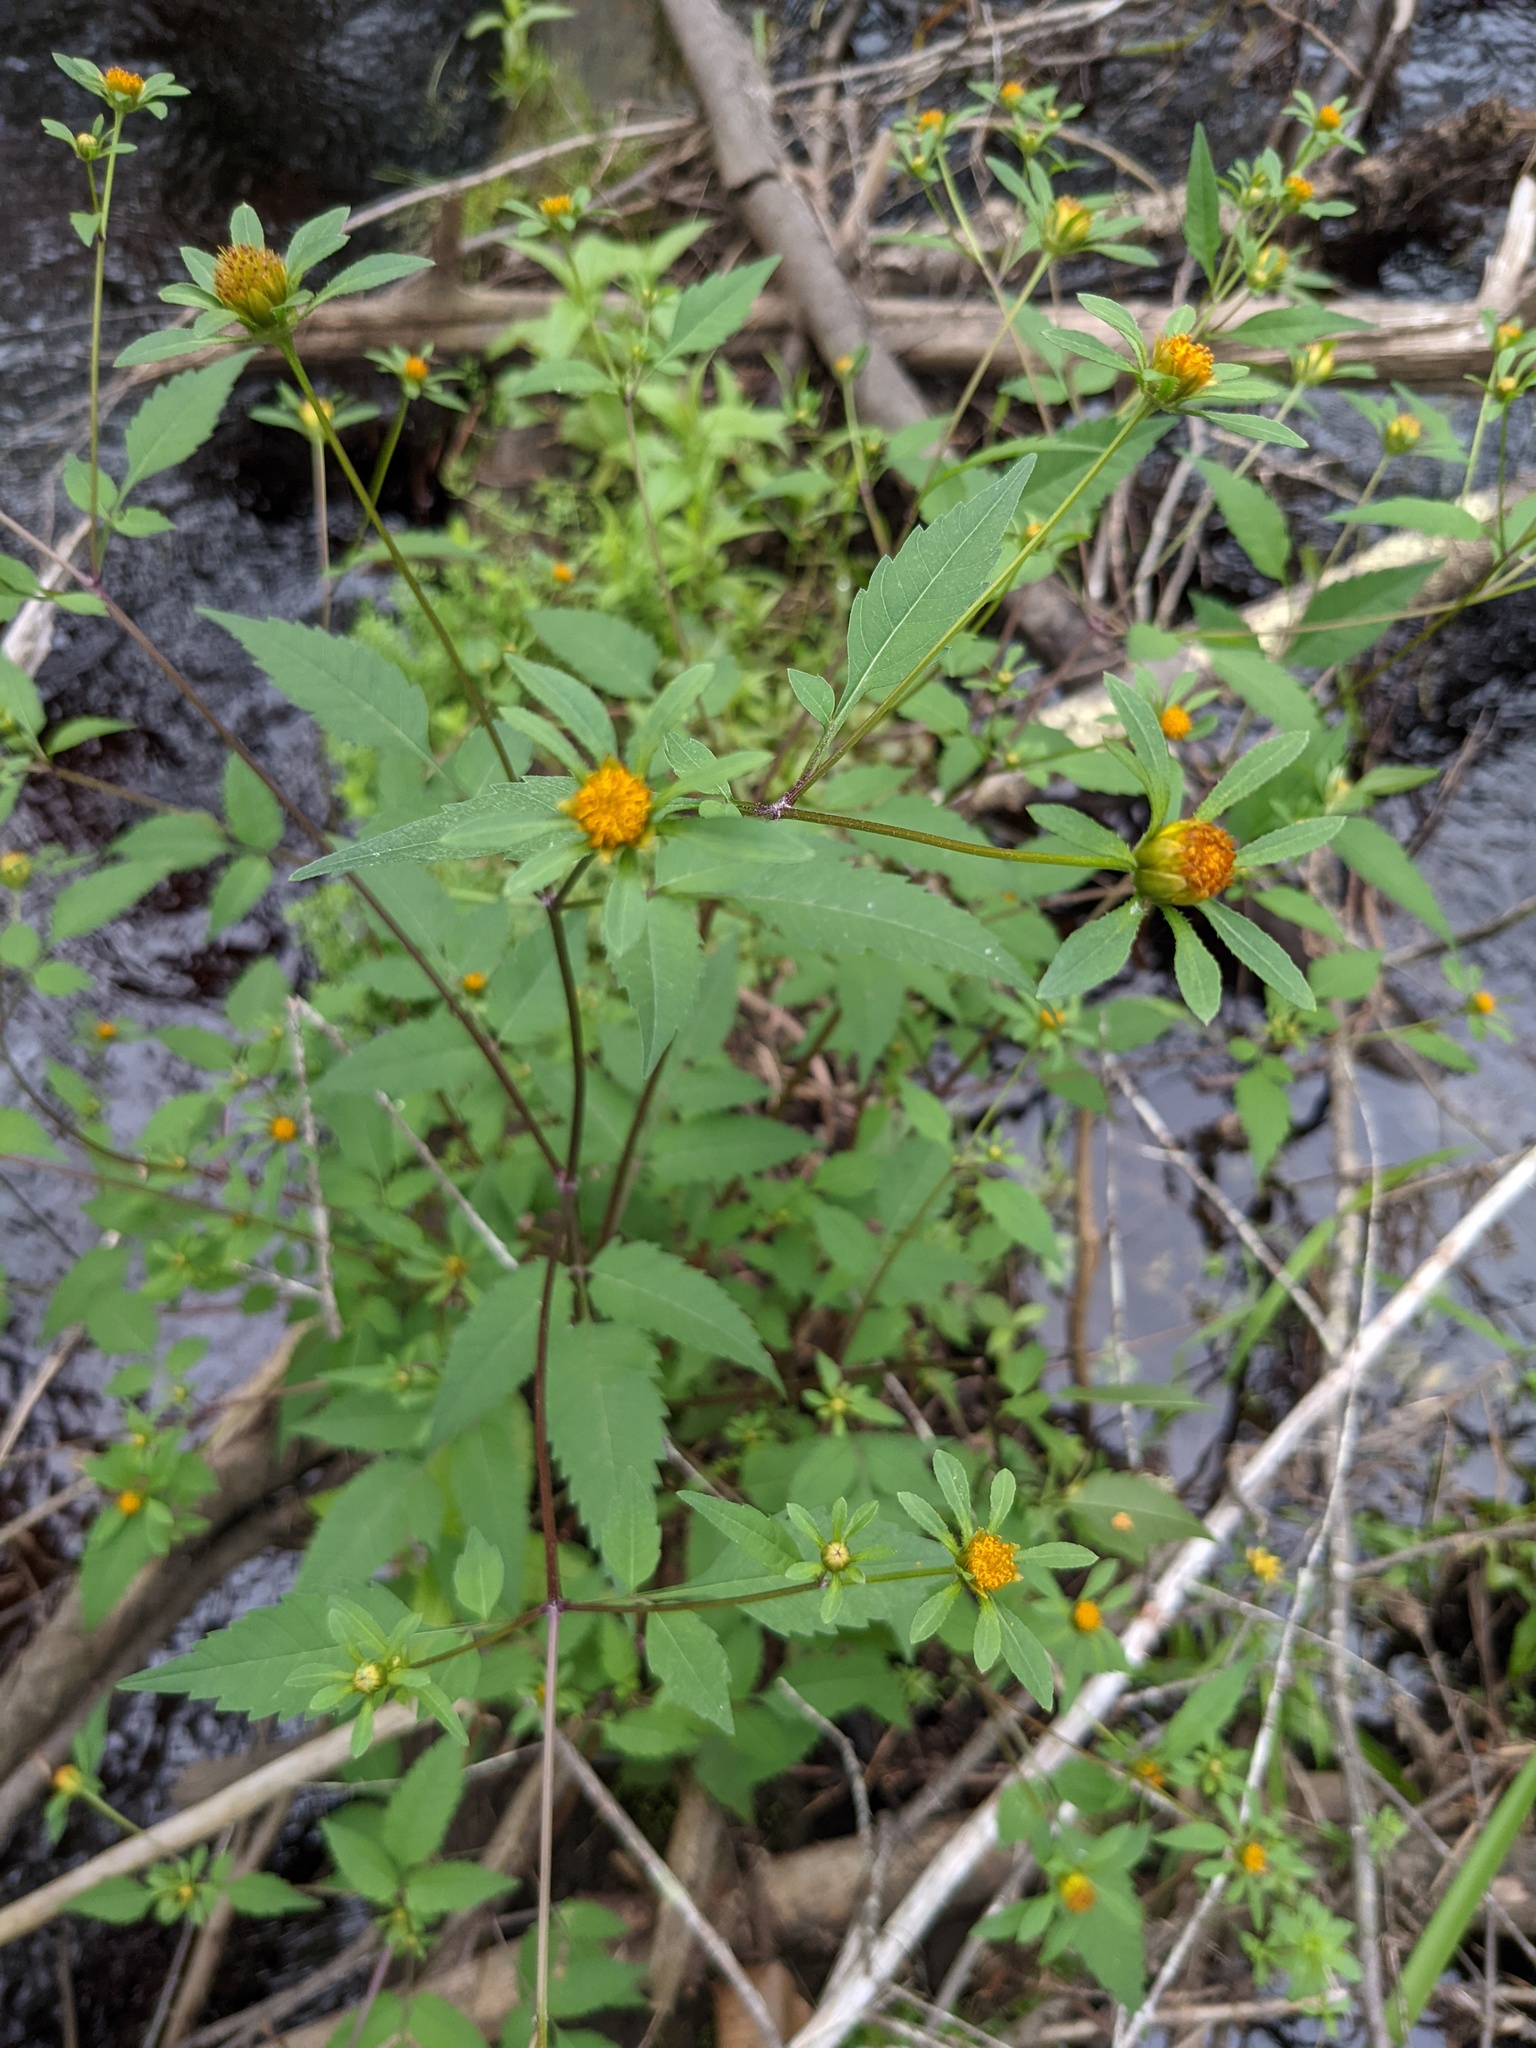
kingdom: Plantae
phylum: Tracheophyta
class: Magnoliopsida
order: Asterales
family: Asteraceae
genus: Bidens
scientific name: Bidens frondosa
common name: Beggarticks
